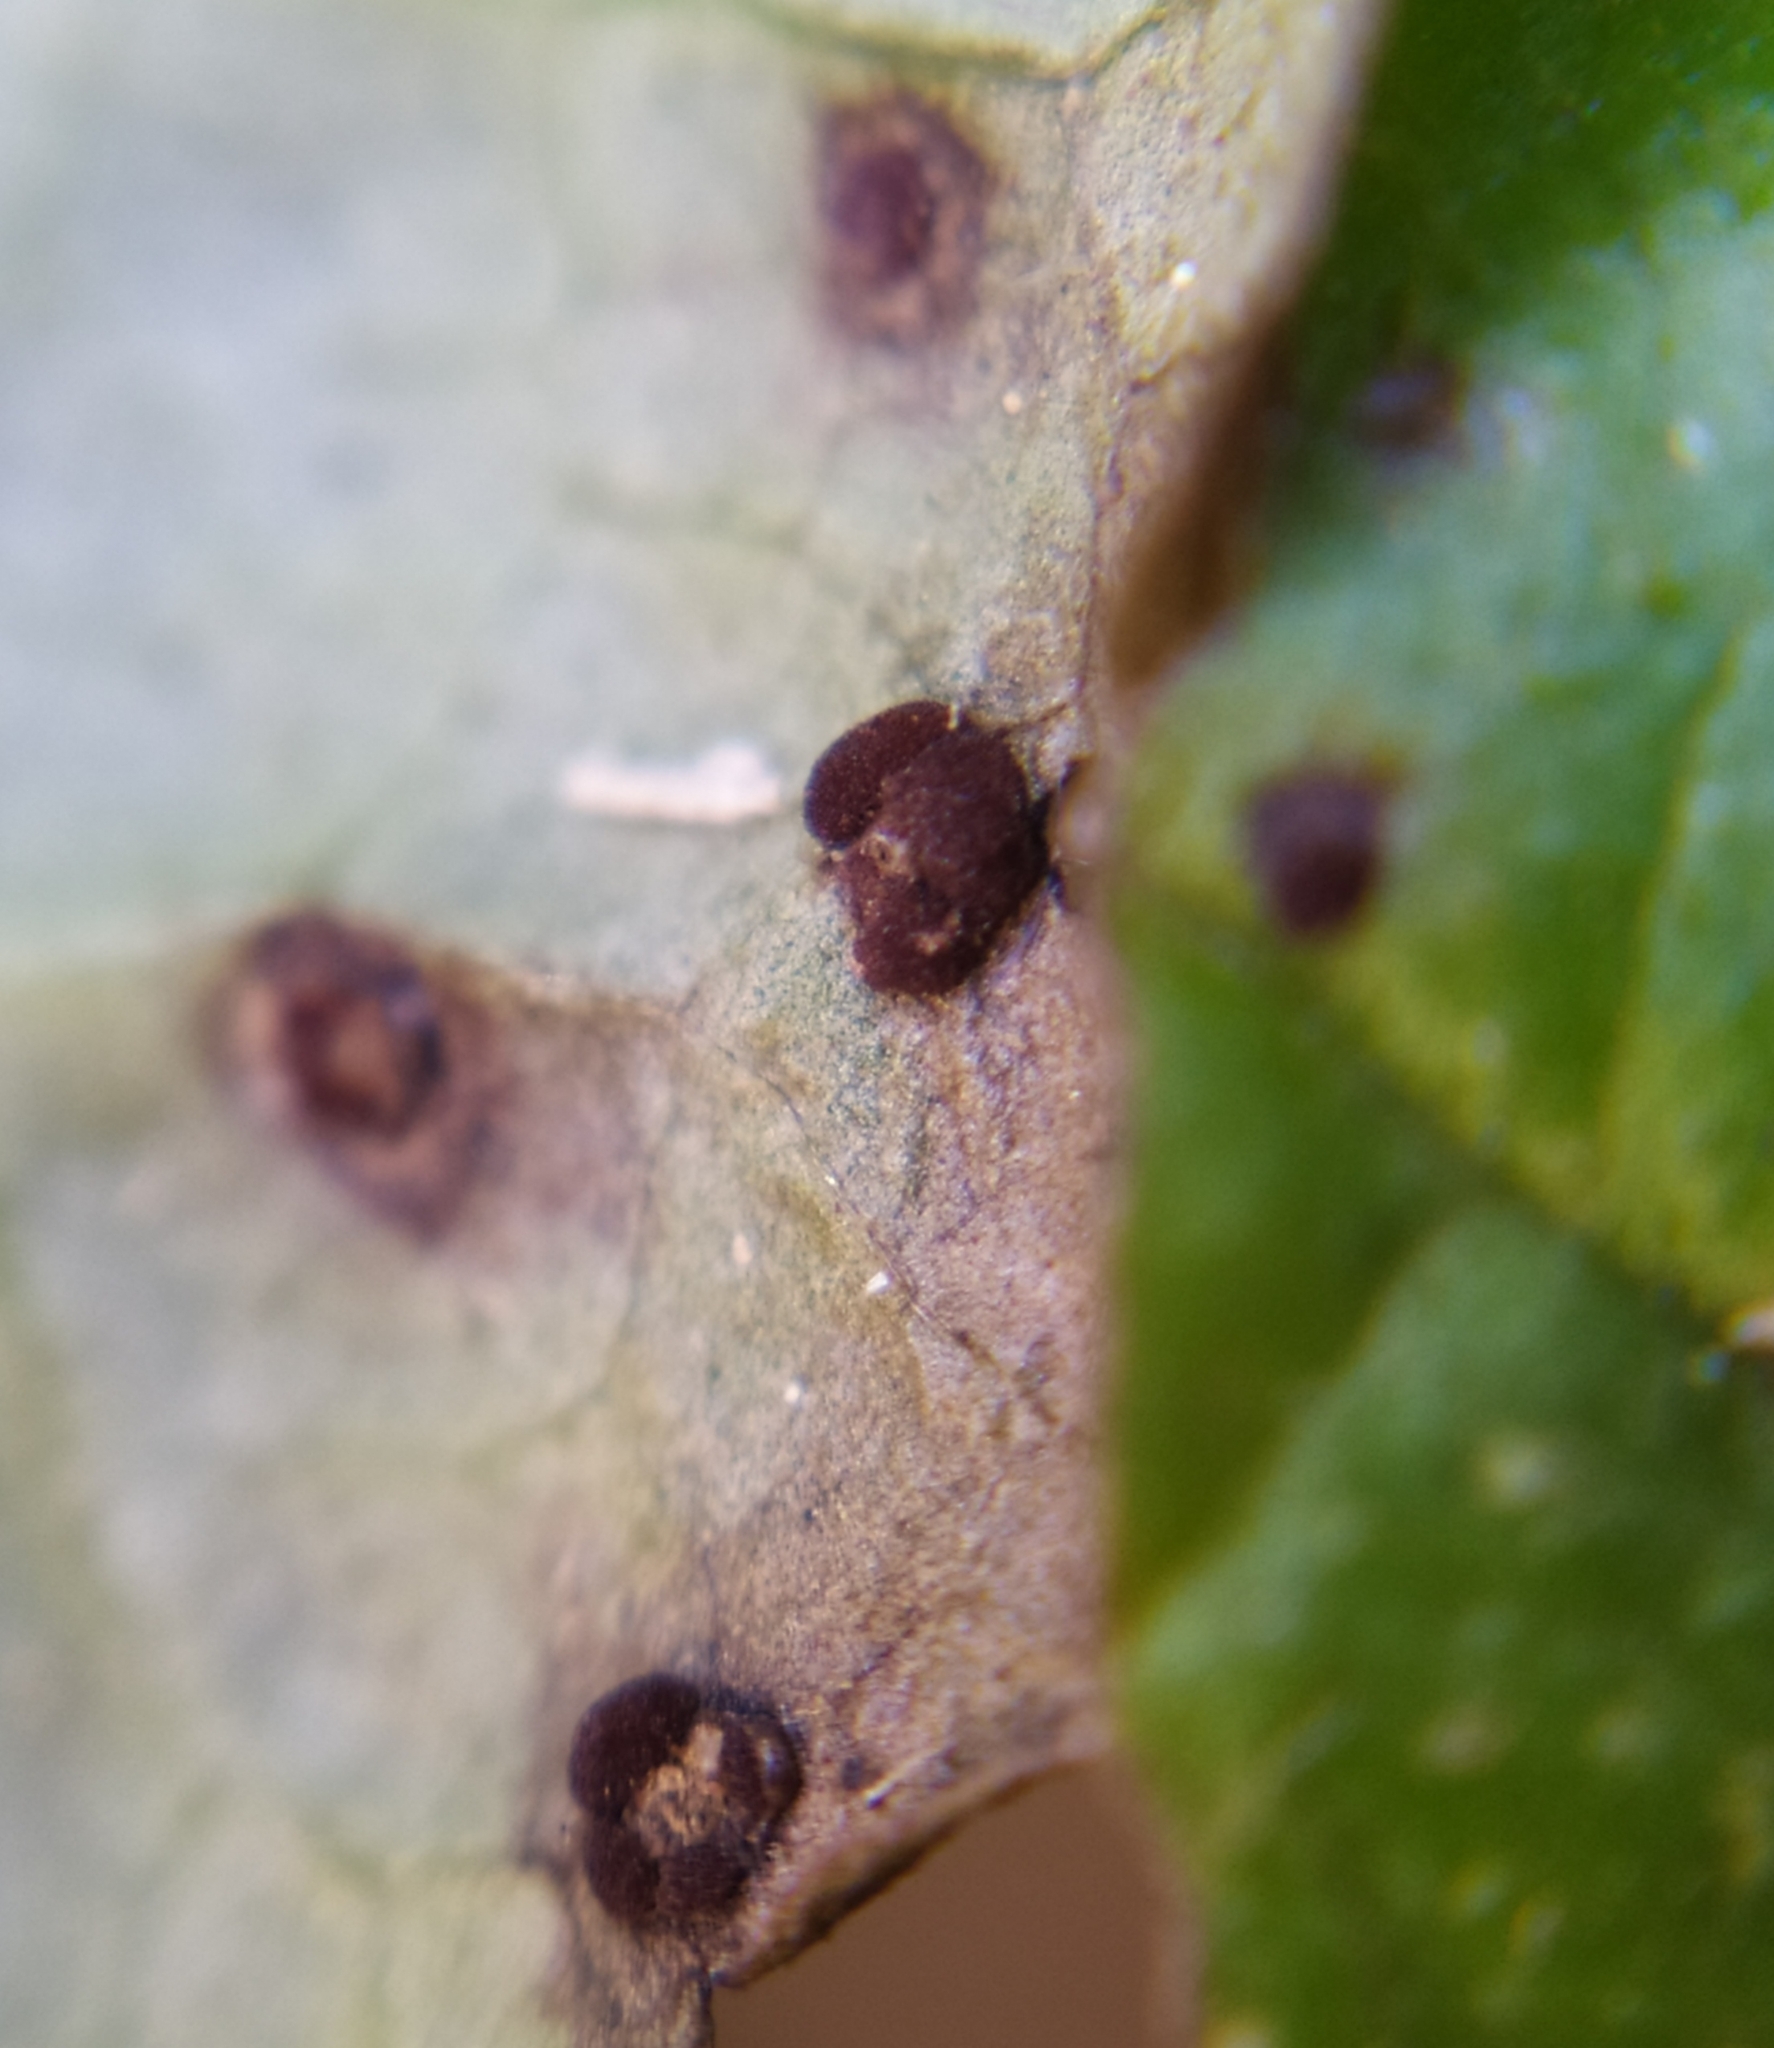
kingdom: Fungi
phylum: Basidiomycota
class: Pucciniomycetes
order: Pucciniales
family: Pucciniaceae
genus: Puccinia
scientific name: Puccinia glechomatis
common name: Ground ivy rust
